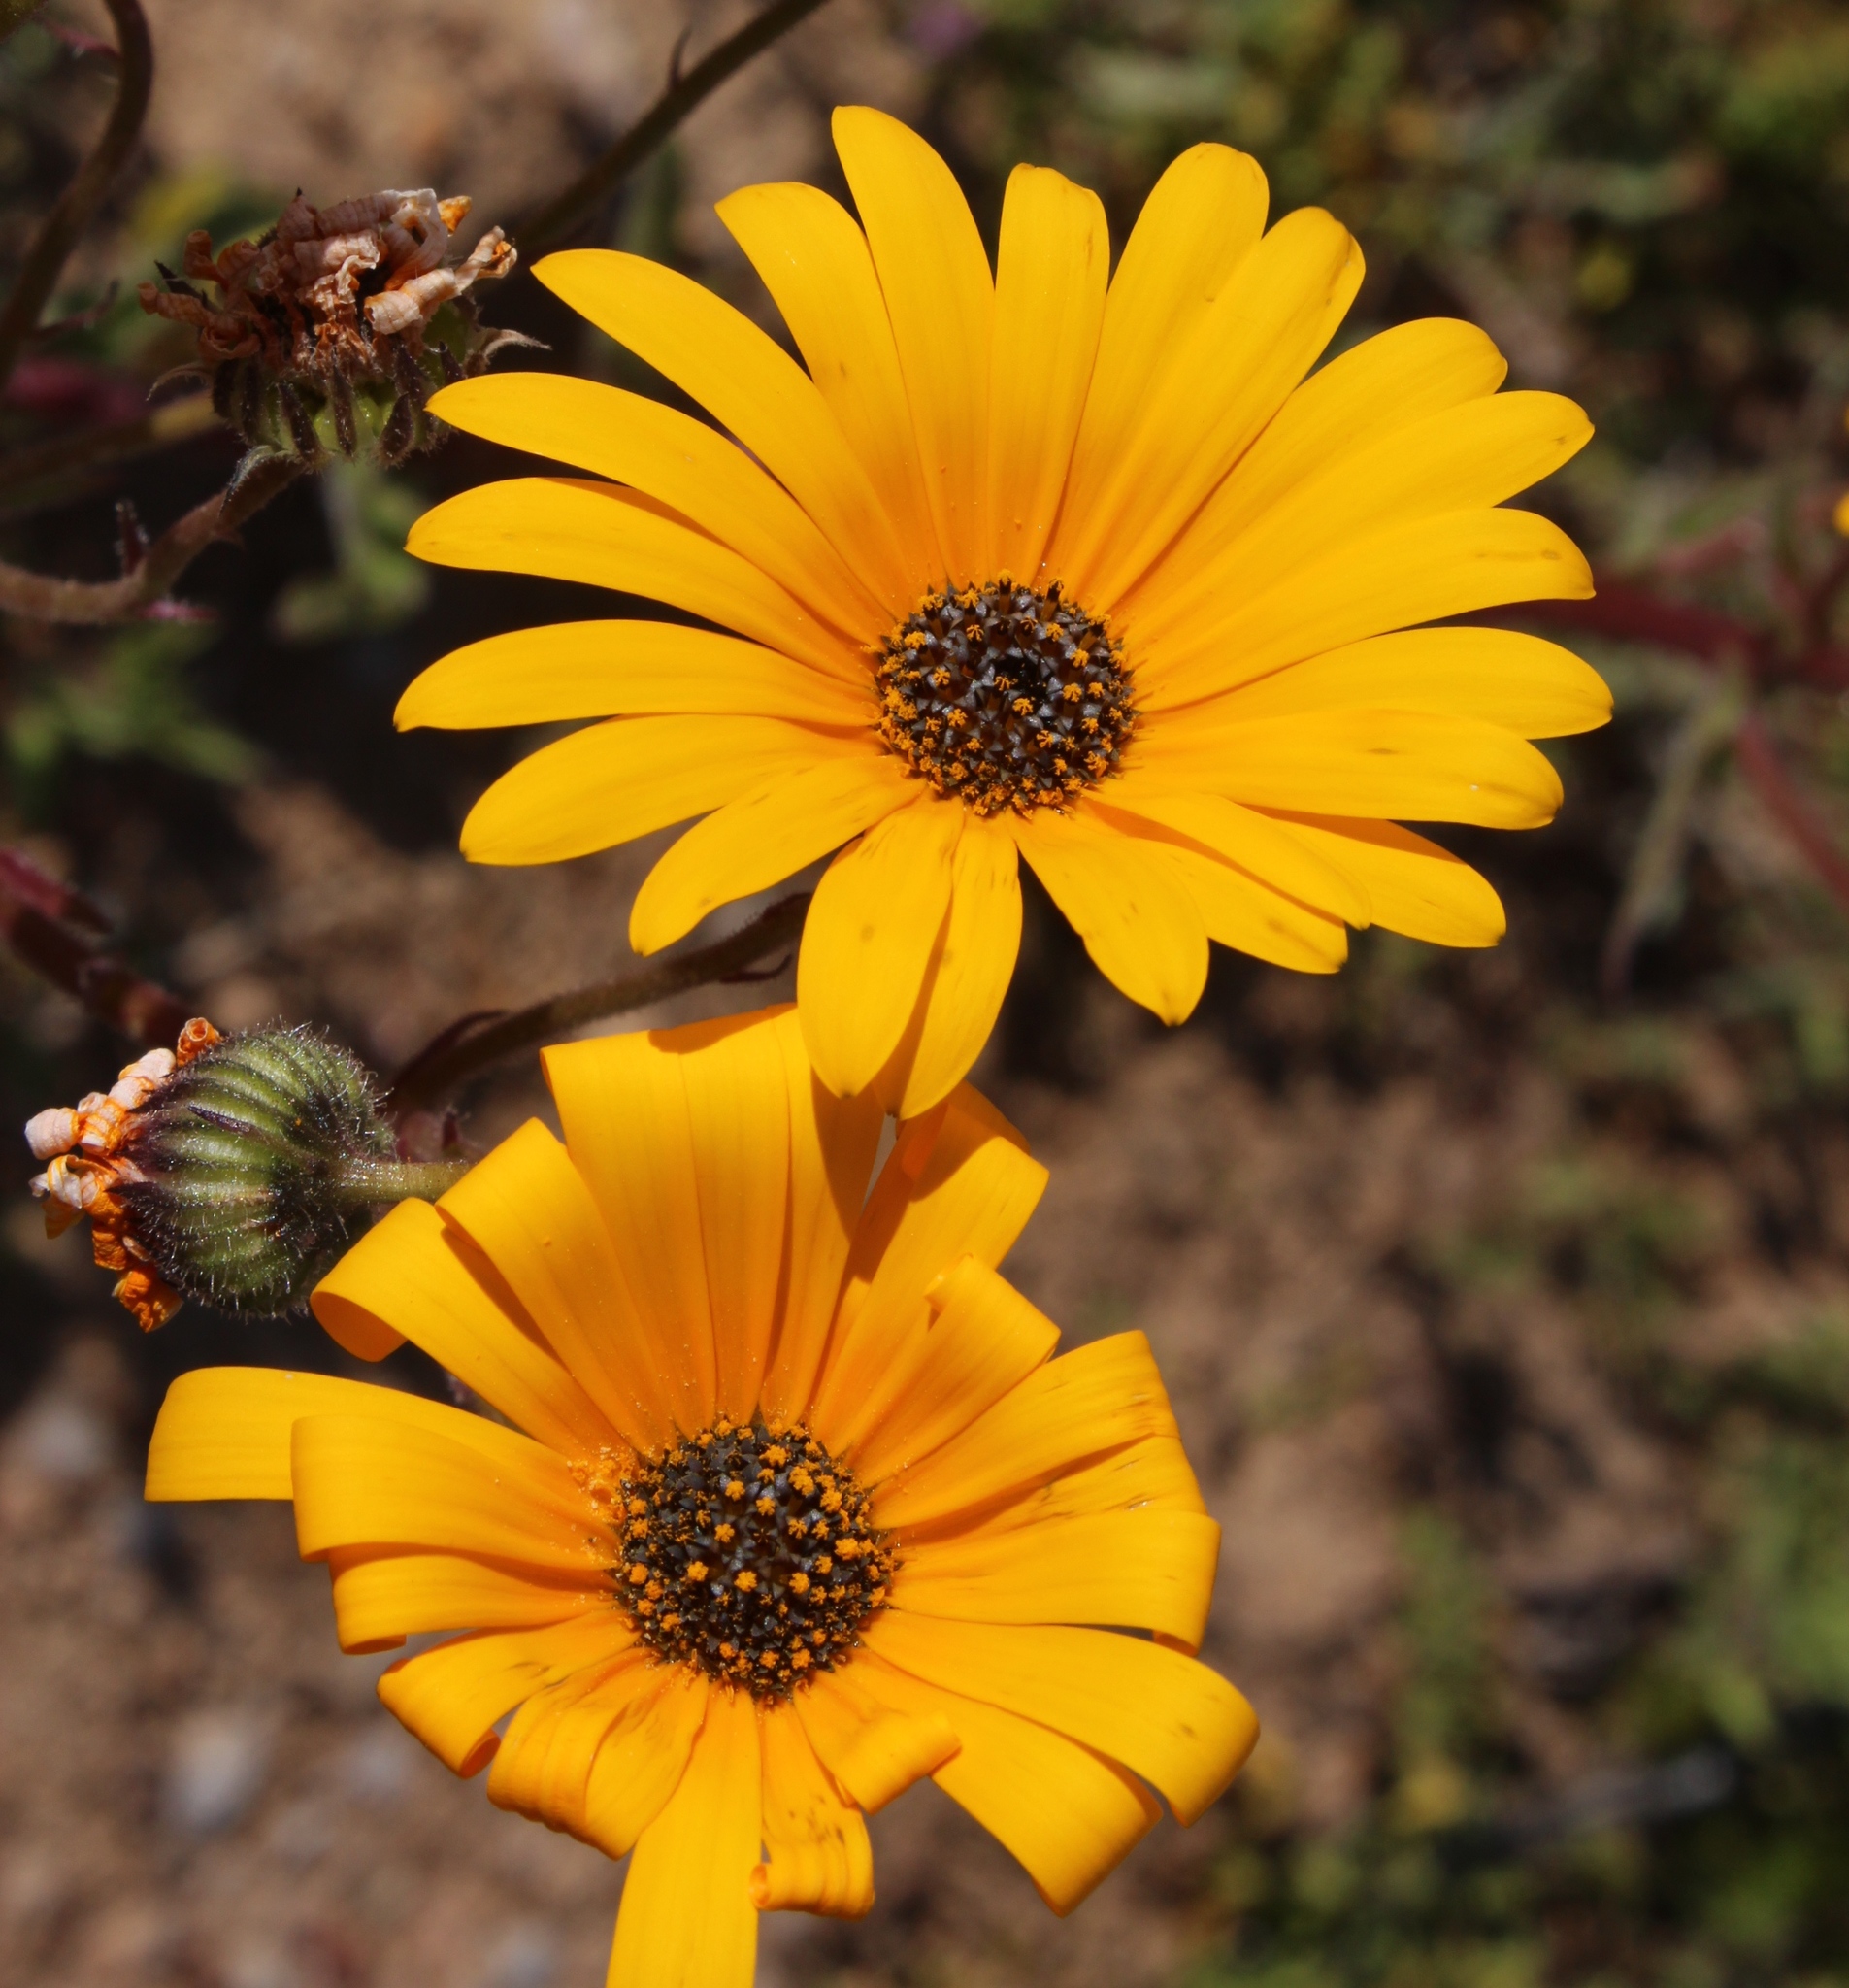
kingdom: Plantae
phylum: Tracheophyta
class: Magnoliopsida
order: Asterales
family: Asteraceae
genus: Osteospermum
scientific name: Osteospermum amplectens
